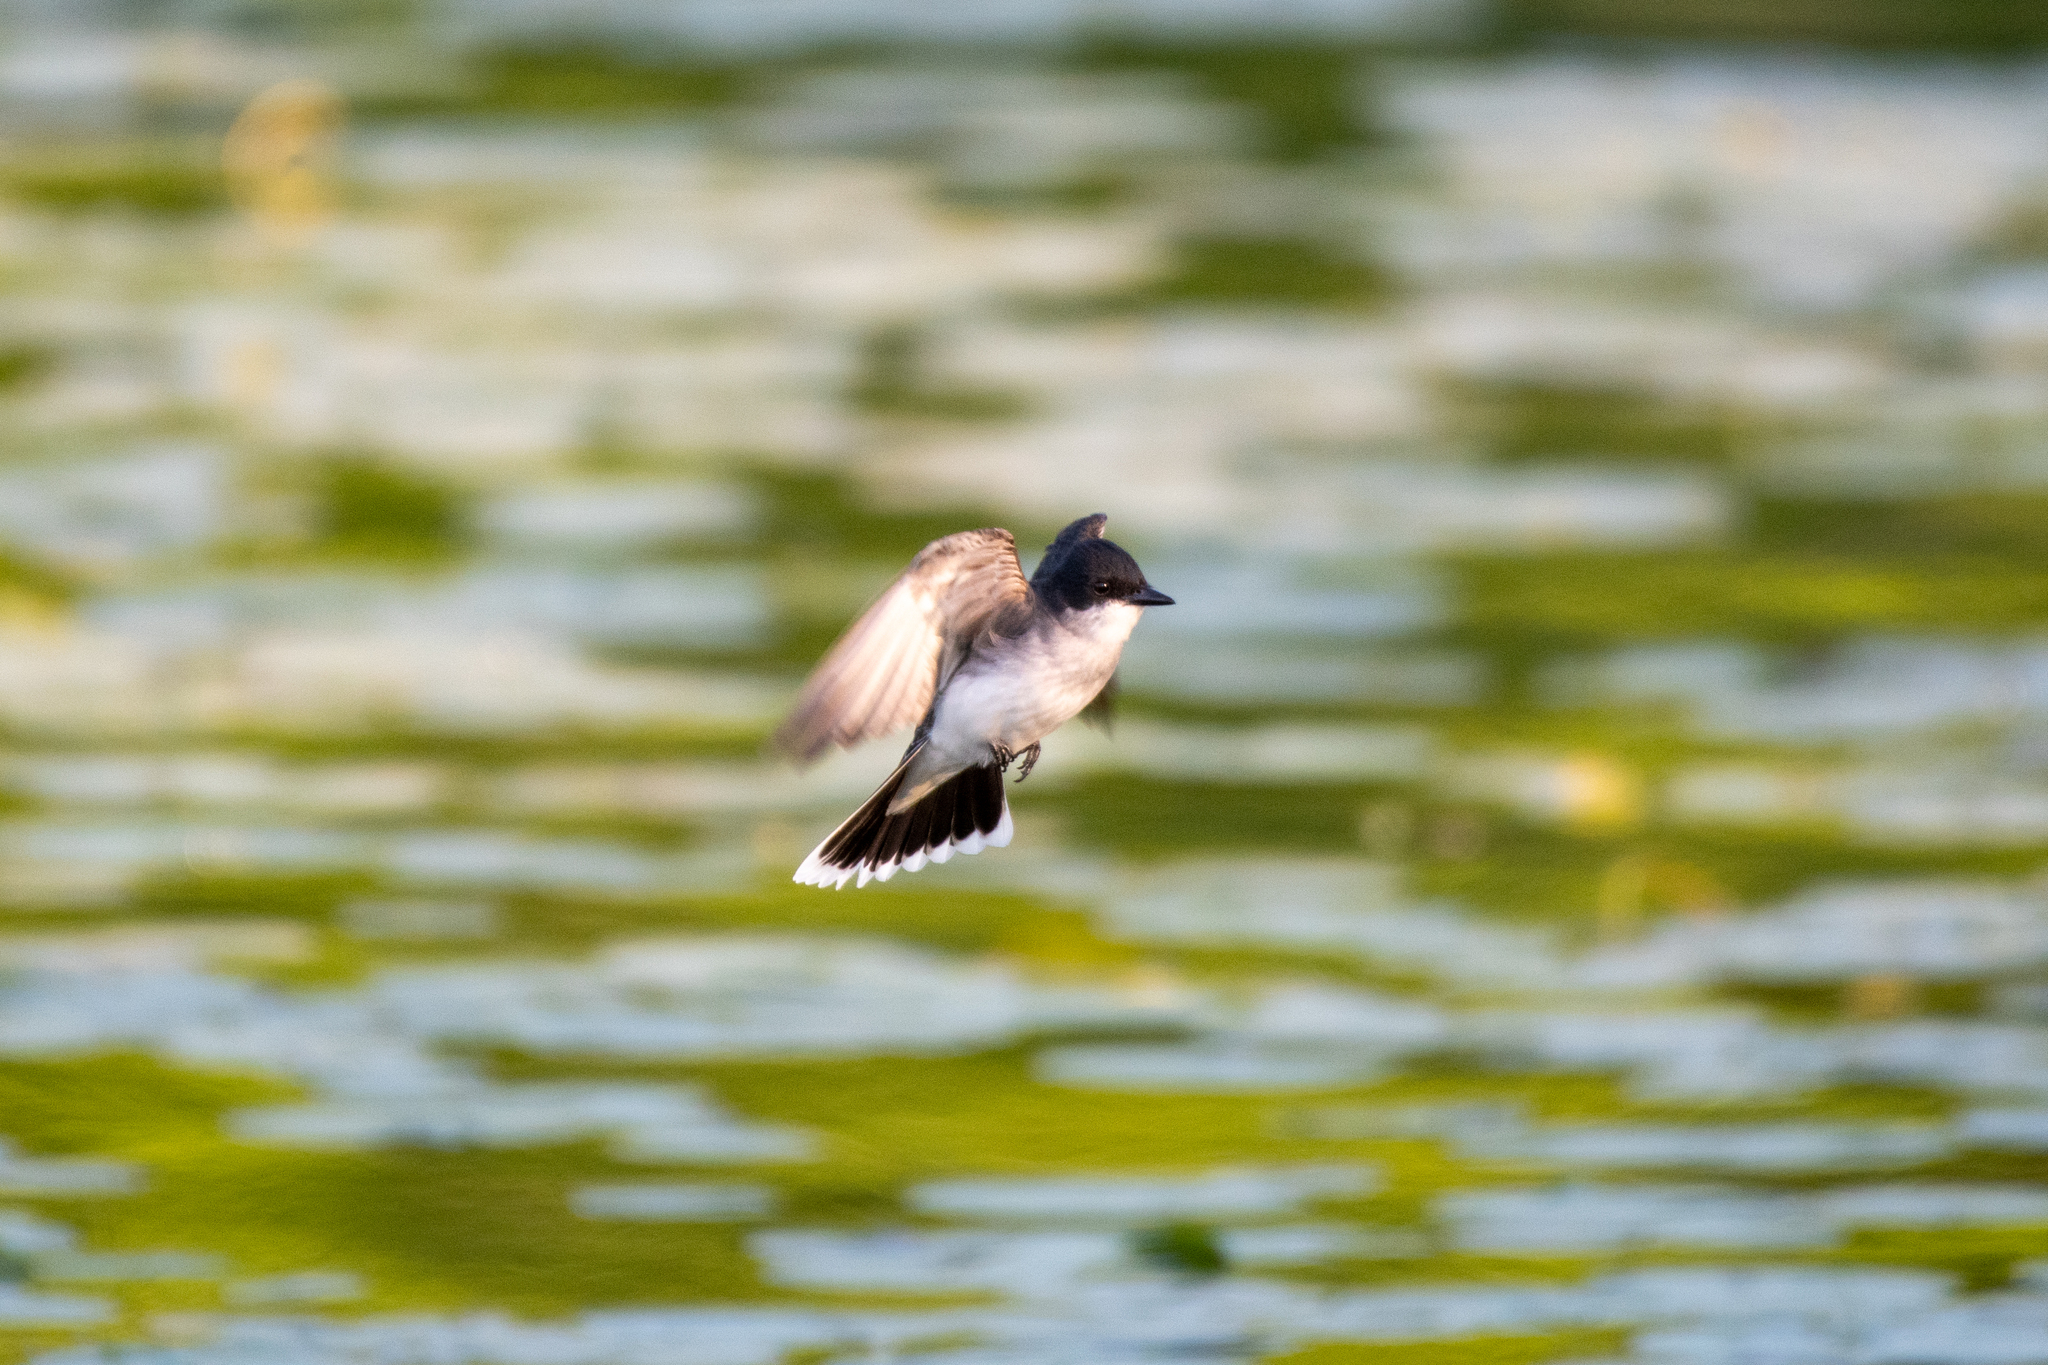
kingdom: Animalia
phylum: Chordata
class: Aves
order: Passeriformes
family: Tyrannidae
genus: Tyrannus
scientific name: Tyrannus tyrannus
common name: Eastern kingbird
